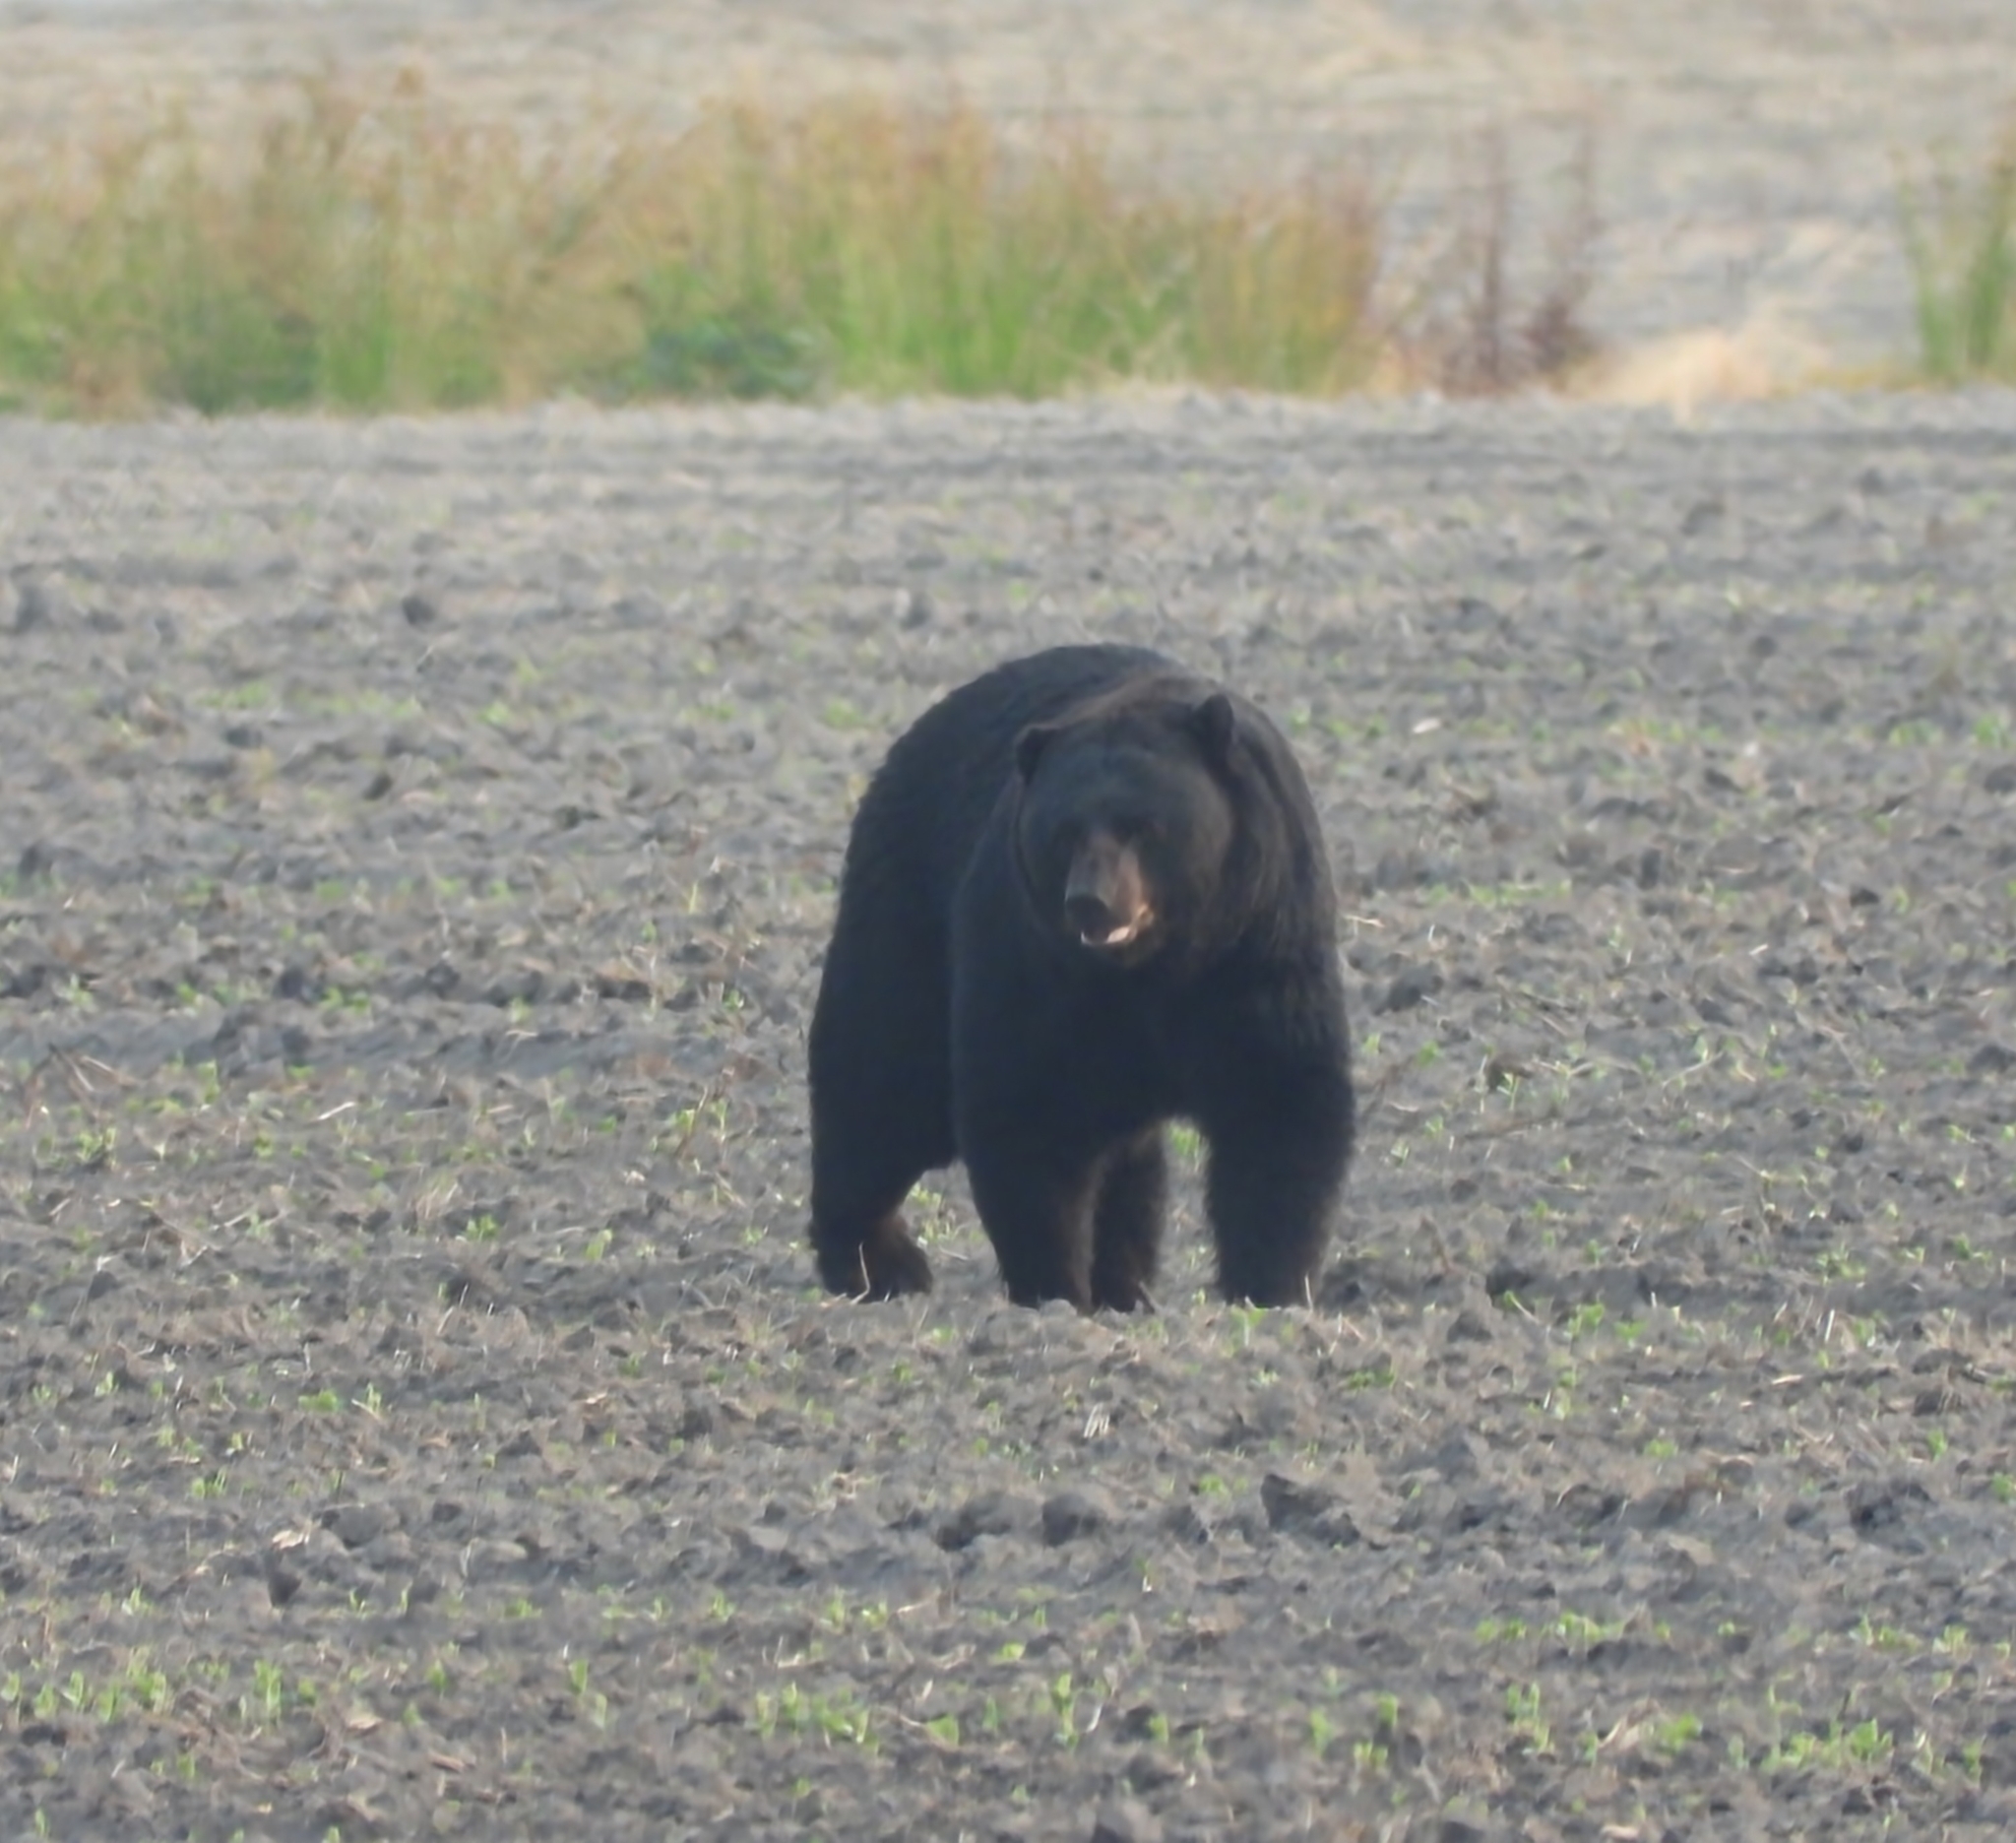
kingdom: Animalia
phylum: Chordata
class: Mammalia
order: Carnivora
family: Ursidae
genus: Ursus
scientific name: Ursus americanus
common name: American black bear
